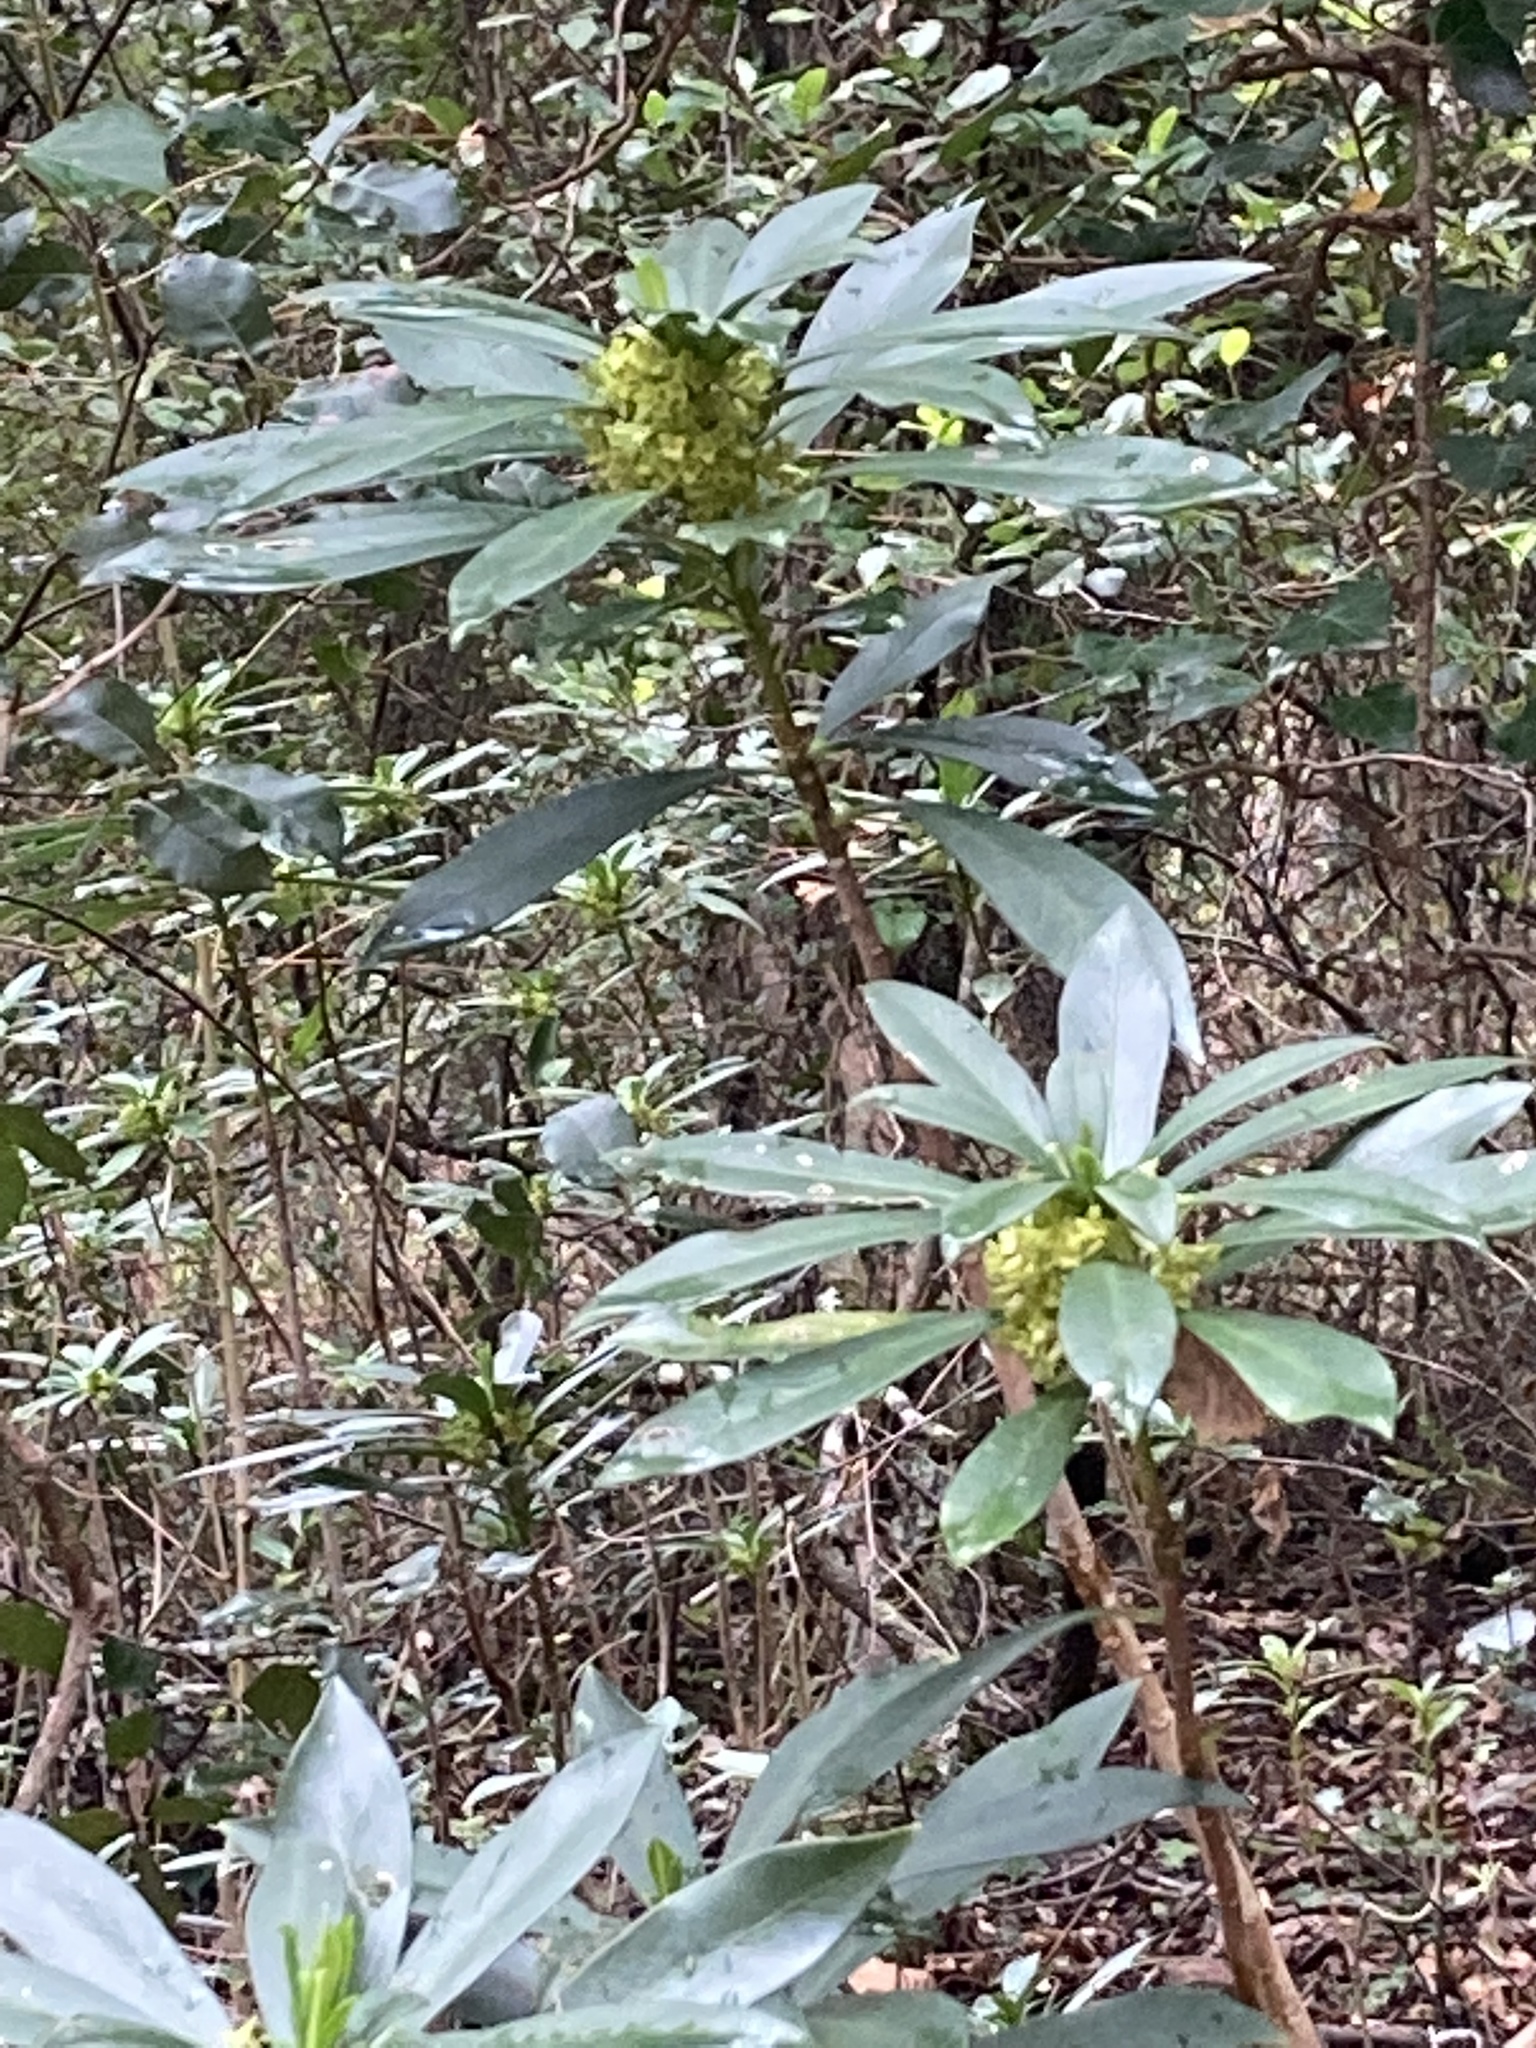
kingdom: Plantae
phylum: Tracheophyta
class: Magnoliopsida
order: Malvales
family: Thymelaeaceae
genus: Daphne
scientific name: Daphne laureola
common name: Spurge-laurel
